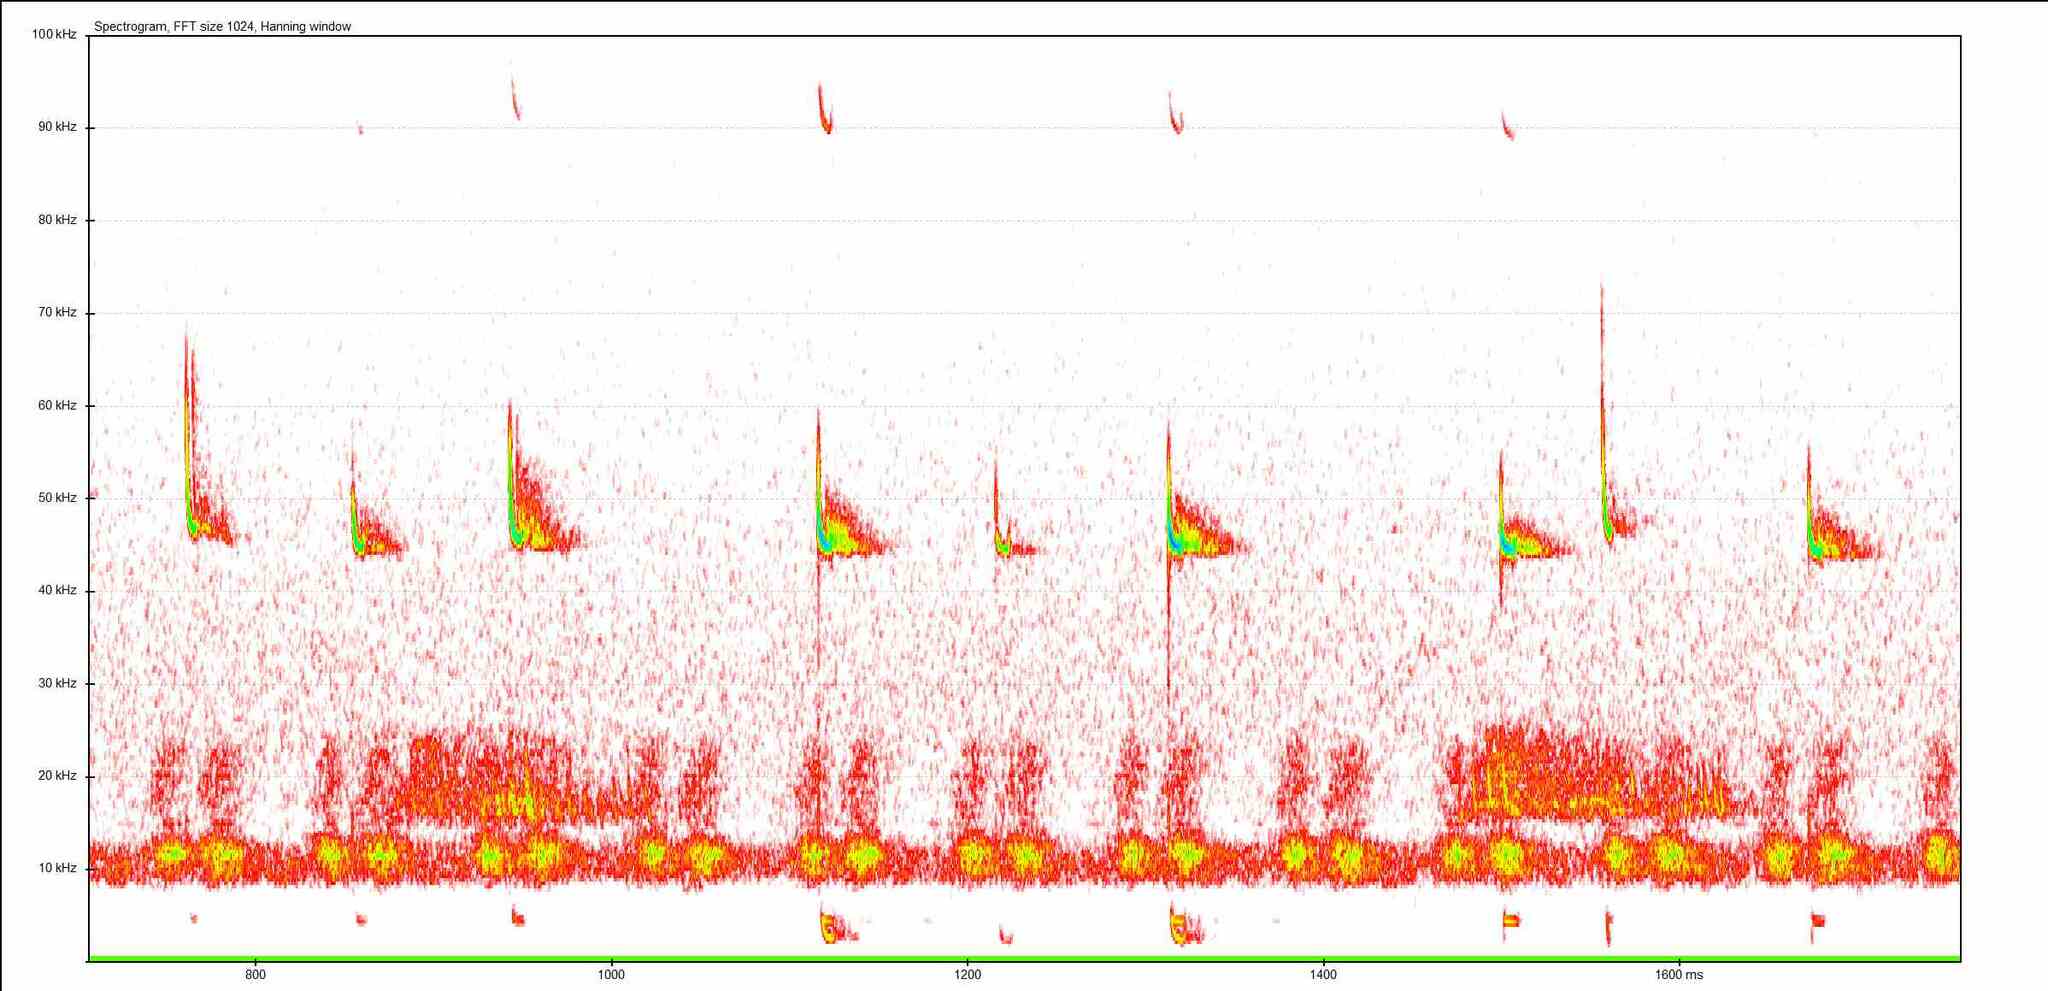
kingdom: Animalia
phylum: Chordata
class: Mammalia
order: Chiroptera
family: Vespertilionidae
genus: Pipistrellus
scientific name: Pipistrellus pipistrellus
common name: Common pipistrelle
